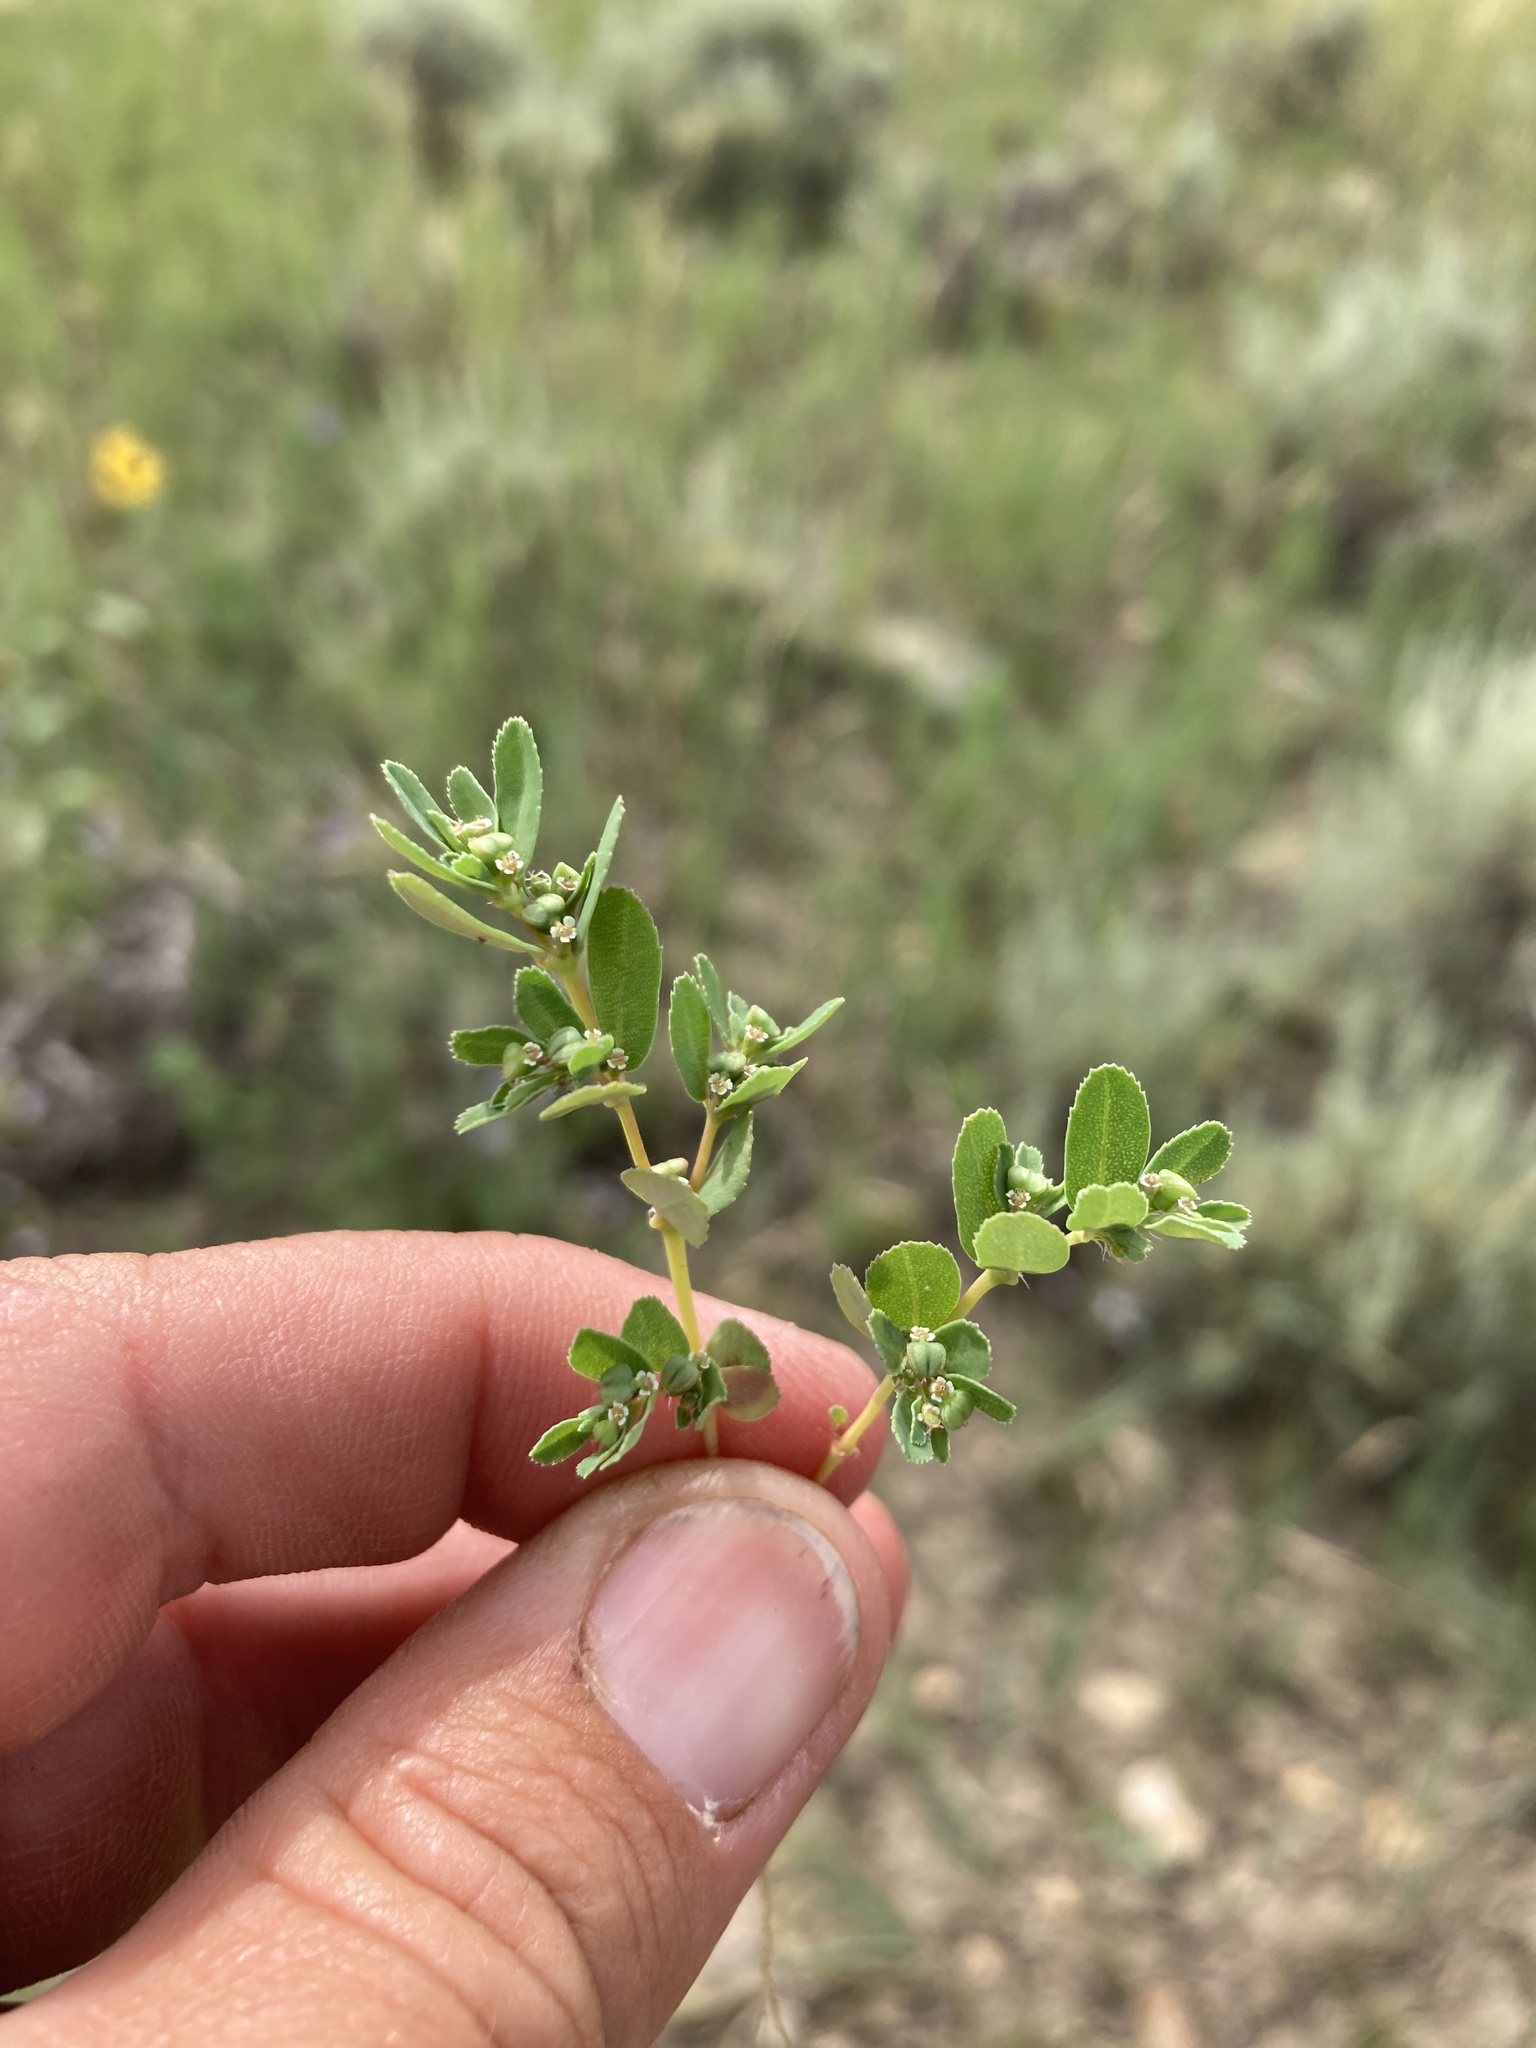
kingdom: Plantae
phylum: Tracheophyta
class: Magnoliopsida
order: Malpighiales
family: Euphorbiaceae
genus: Euphorbia
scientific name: Euphorbia serpillifolia
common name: Thyme-leaf spurge
